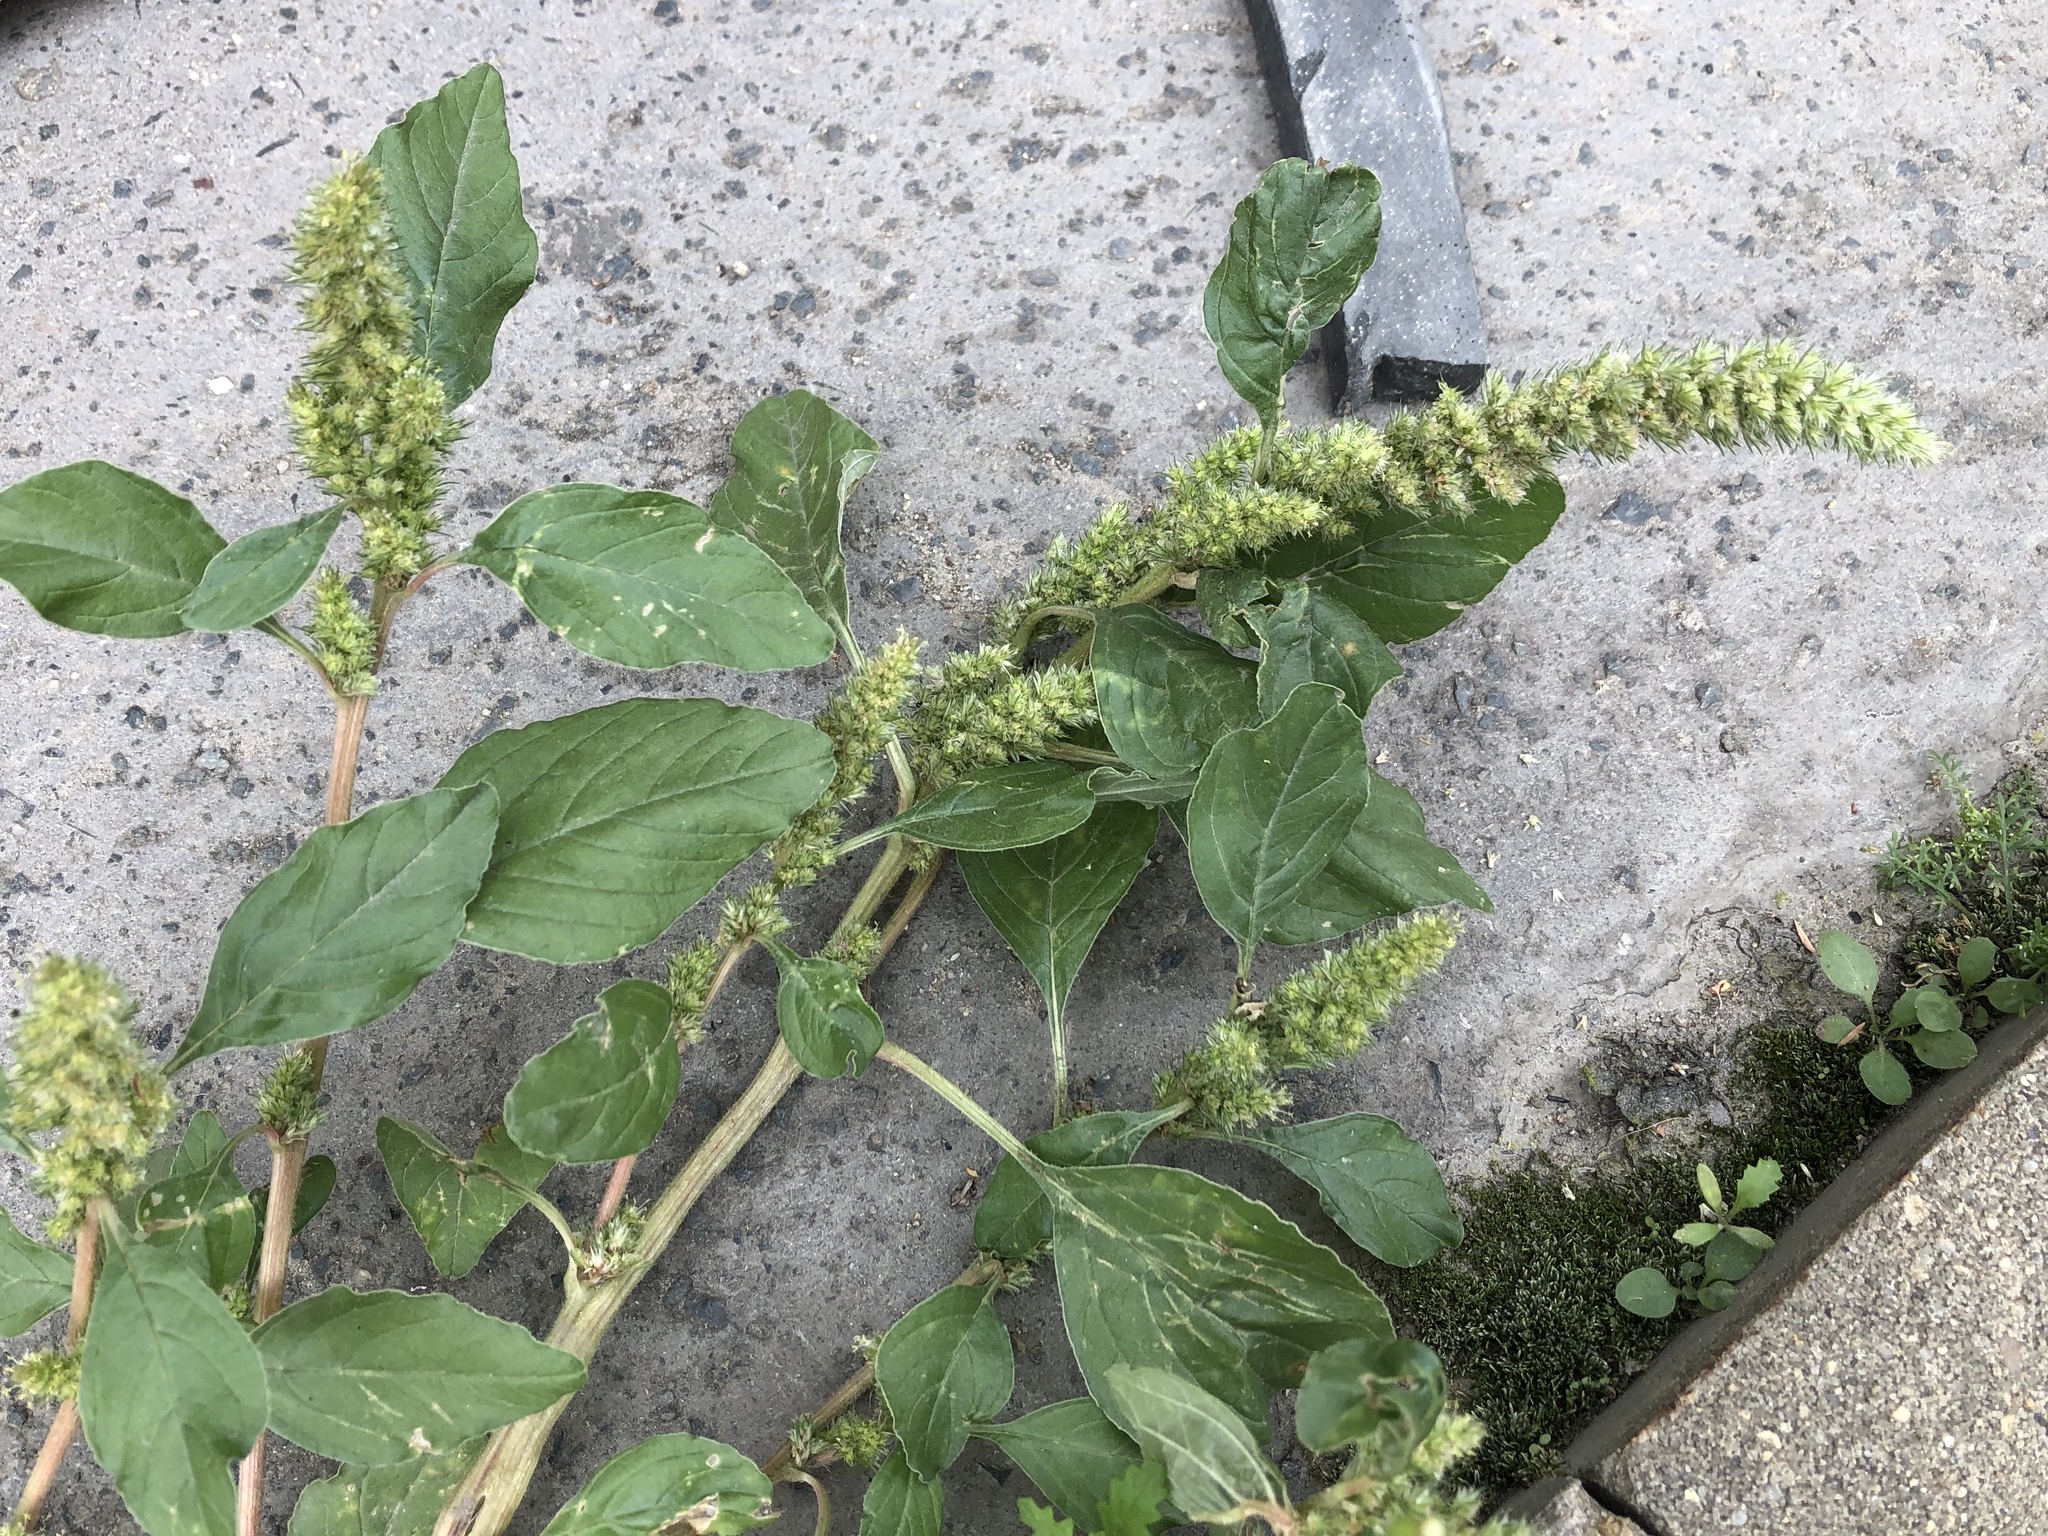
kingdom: Plantae
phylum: Tracheophyta
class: Magnoliopsida
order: Caryophyllales
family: Amaranthaceae
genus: Amaranthus
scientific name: Amaranthus retroflexus
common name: Redroot amaranth
